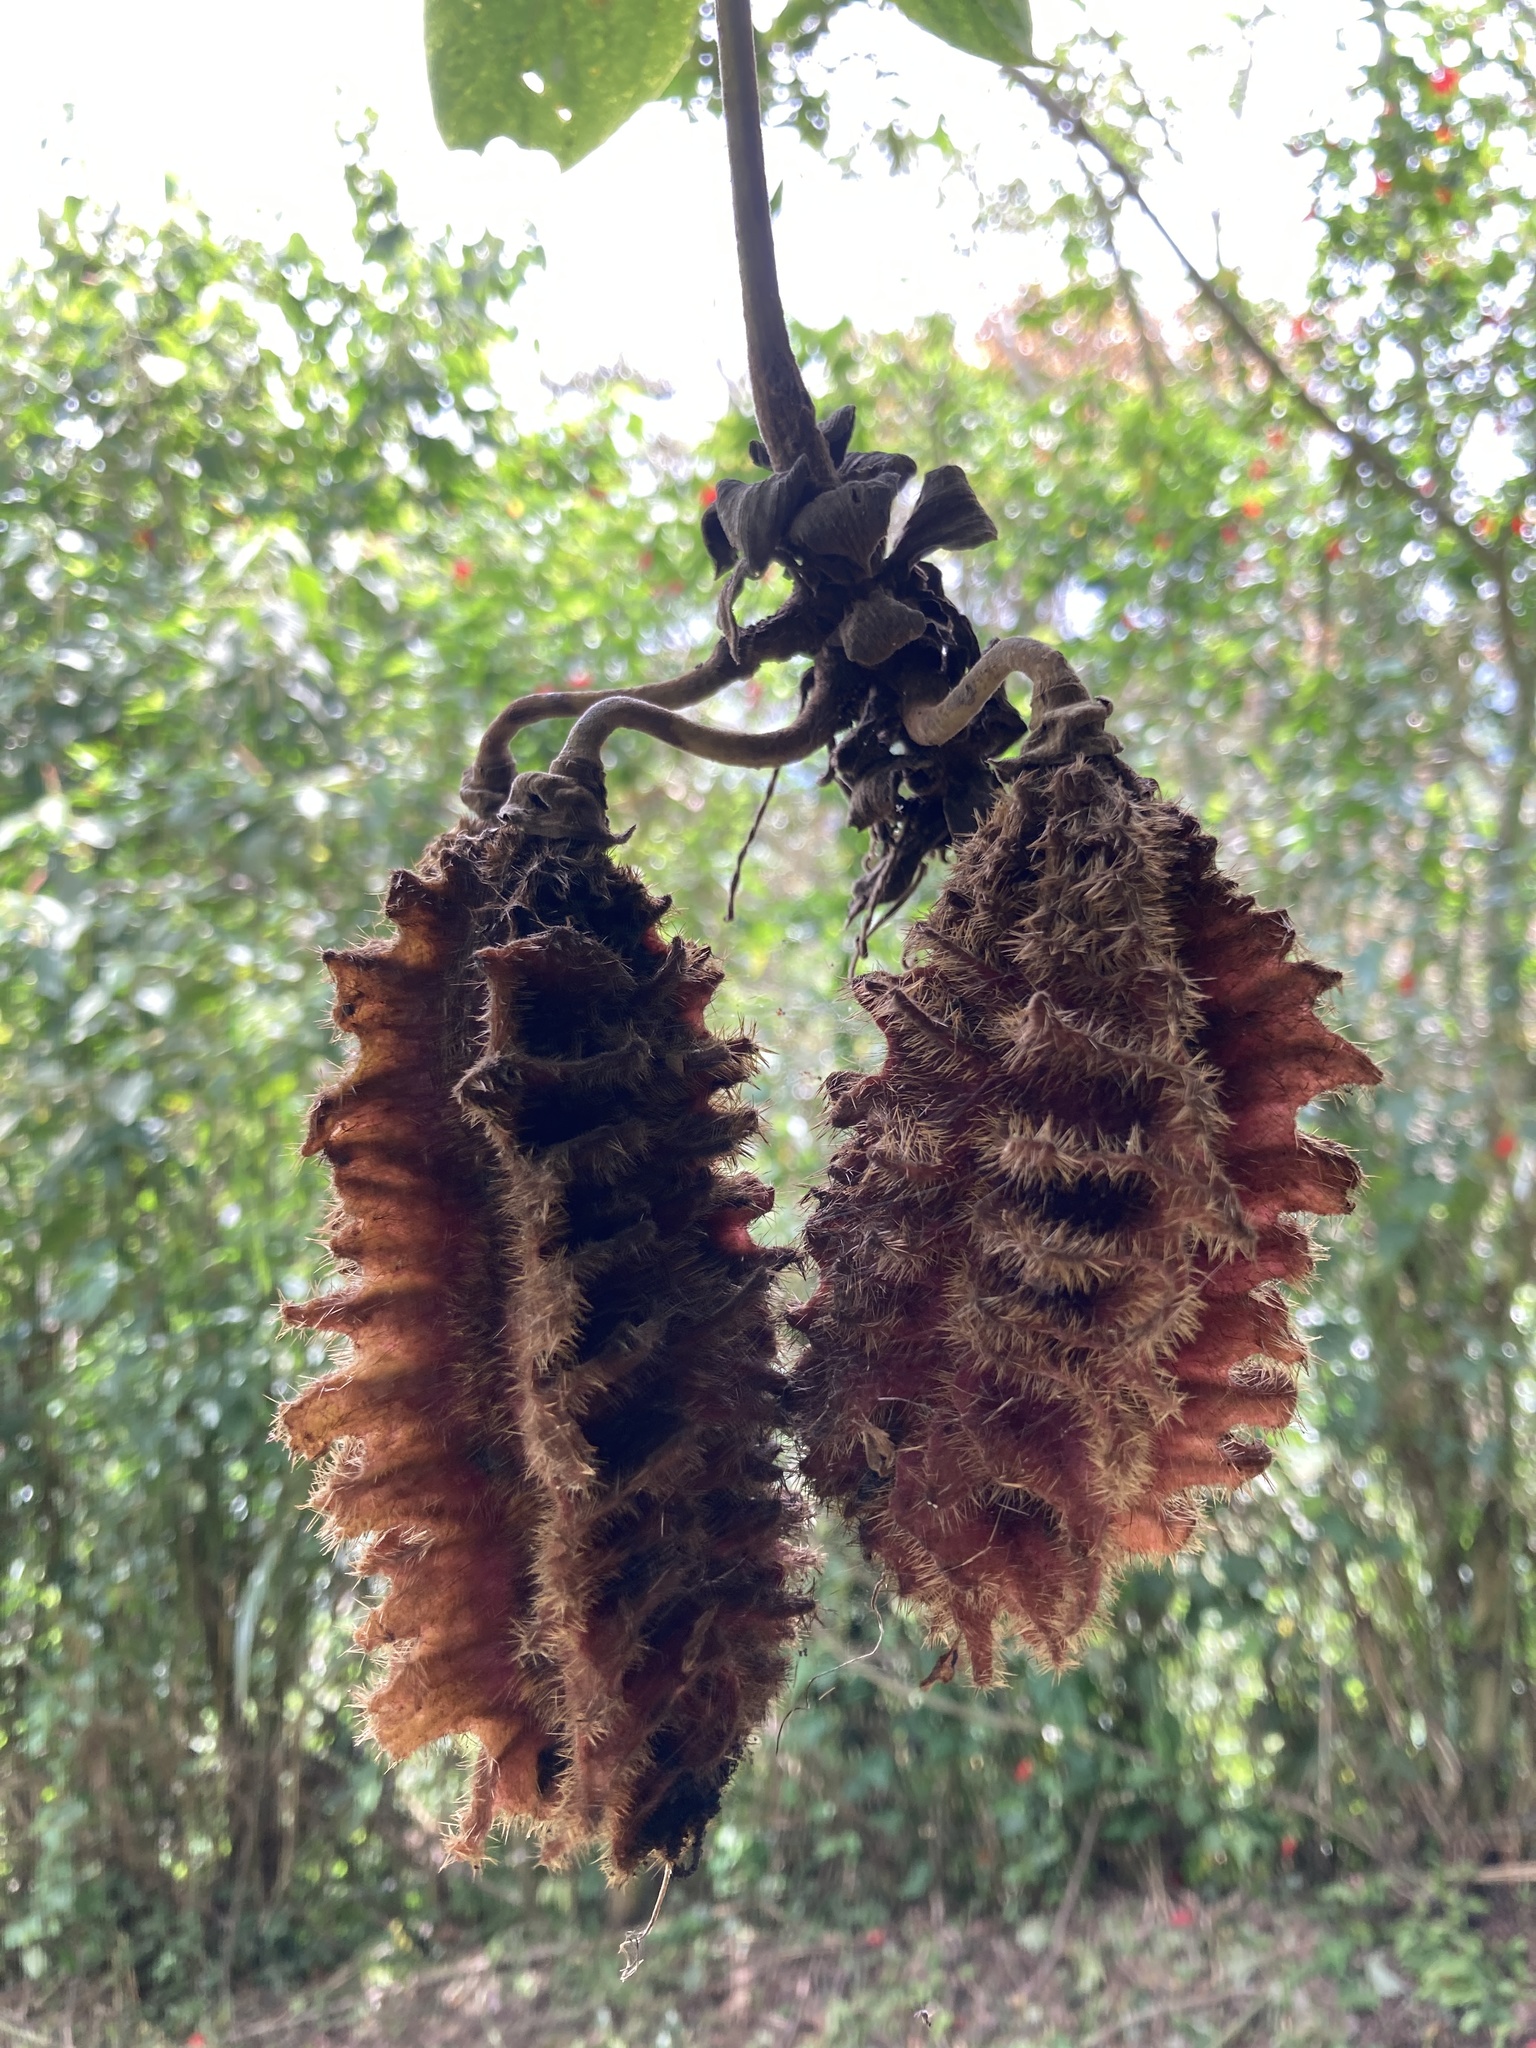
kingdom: Plantae
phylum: Tracheophyta
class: Magnoliopsida
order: Fabales
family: Fabaceae
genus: Mucuna
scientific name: Mucuna mutisiana
